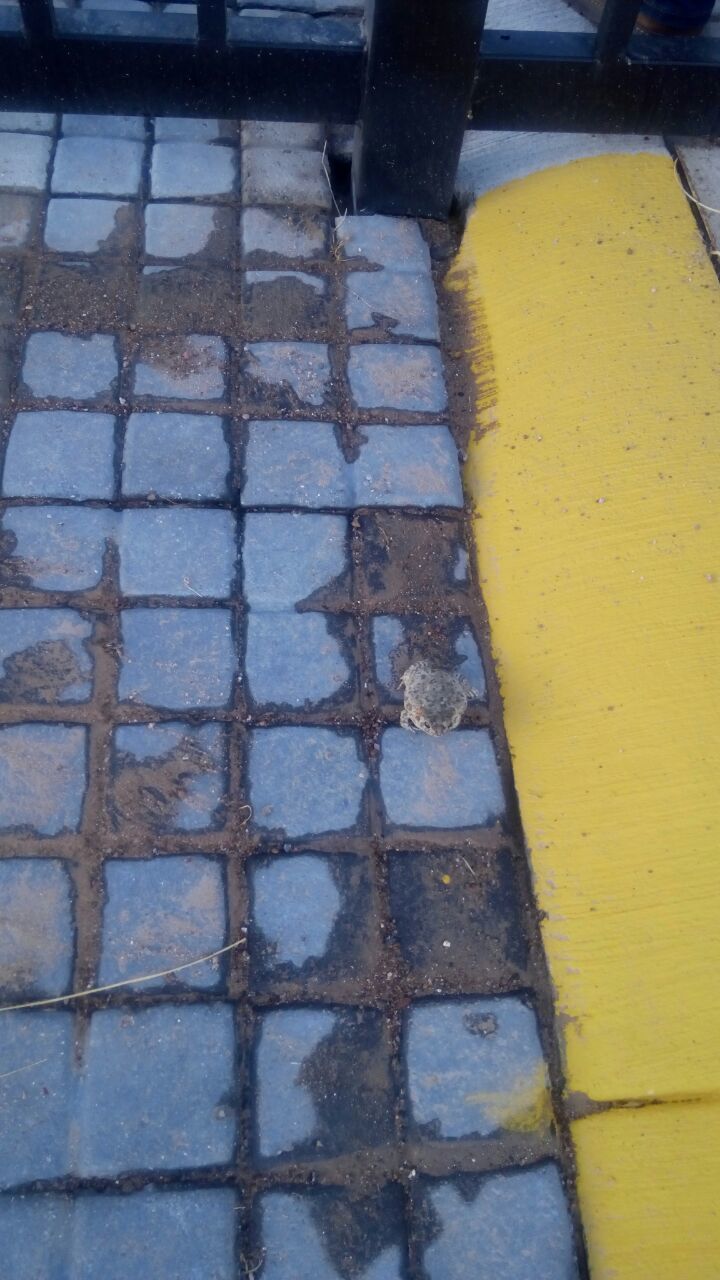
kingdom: Animalia
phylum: Chordata
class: Amphibia
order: Anura
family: Bufonidae
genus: Anaxyrus
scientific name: Anaxyrus compactilis
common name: Plateau toad
